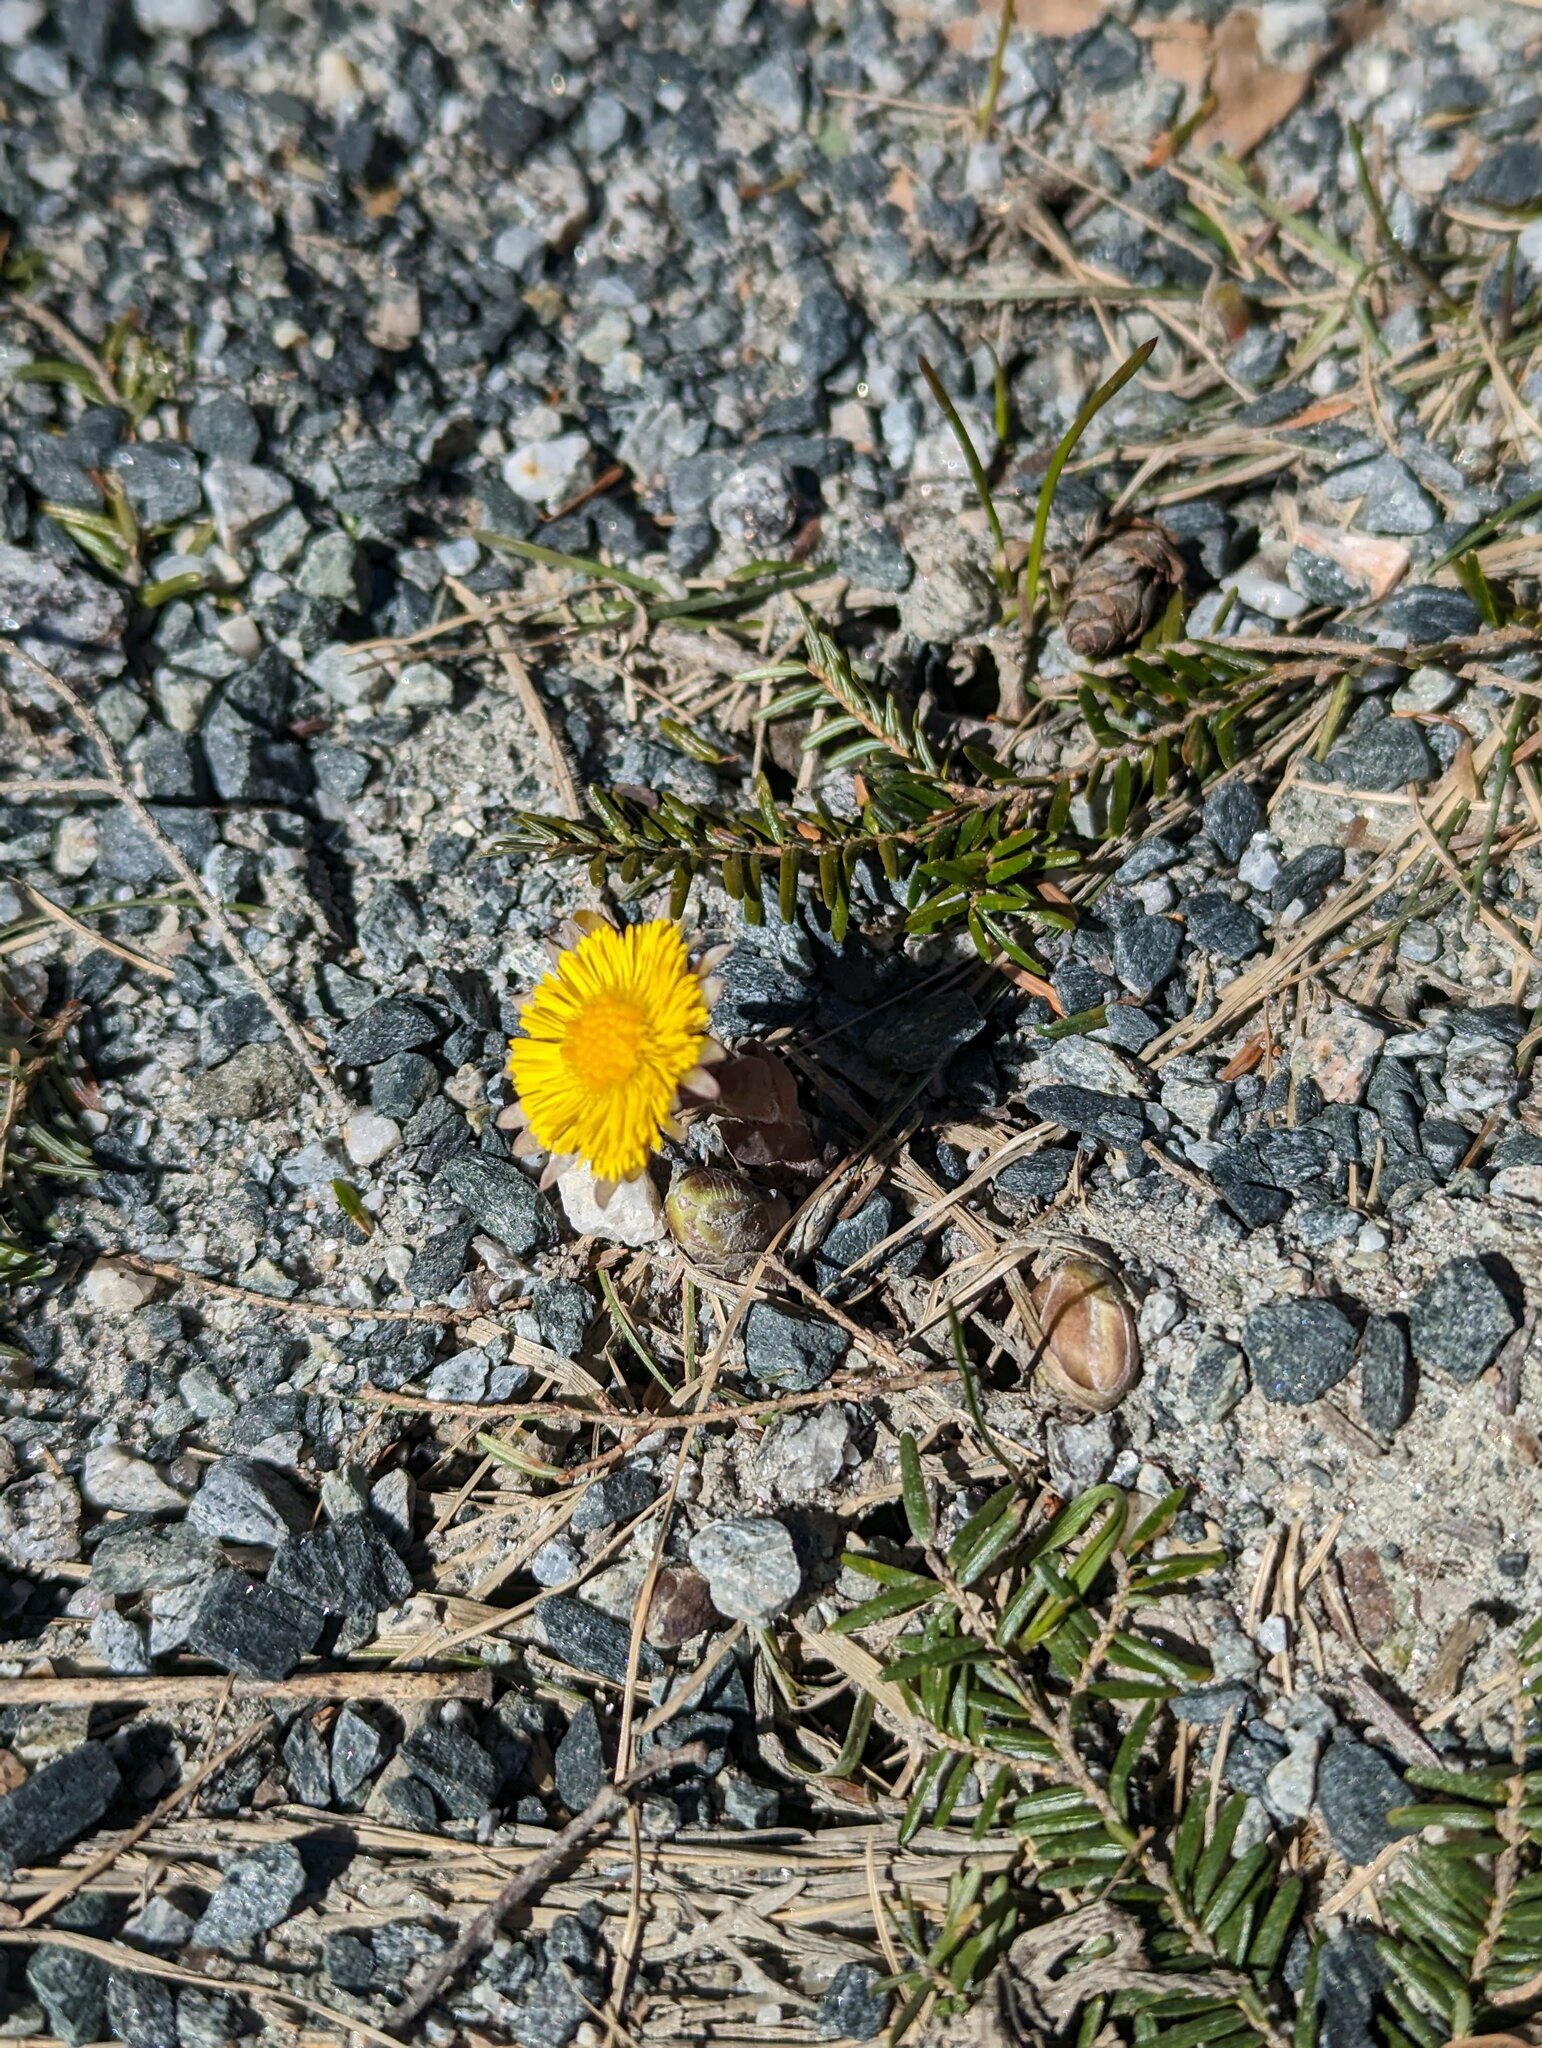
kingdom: Plantae
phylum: Tracheophyta
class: Magnoliopsida
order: Asterales
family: Asteraceae
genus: Tussilago
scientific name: Tussilago farfara
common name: Coltsfoot
